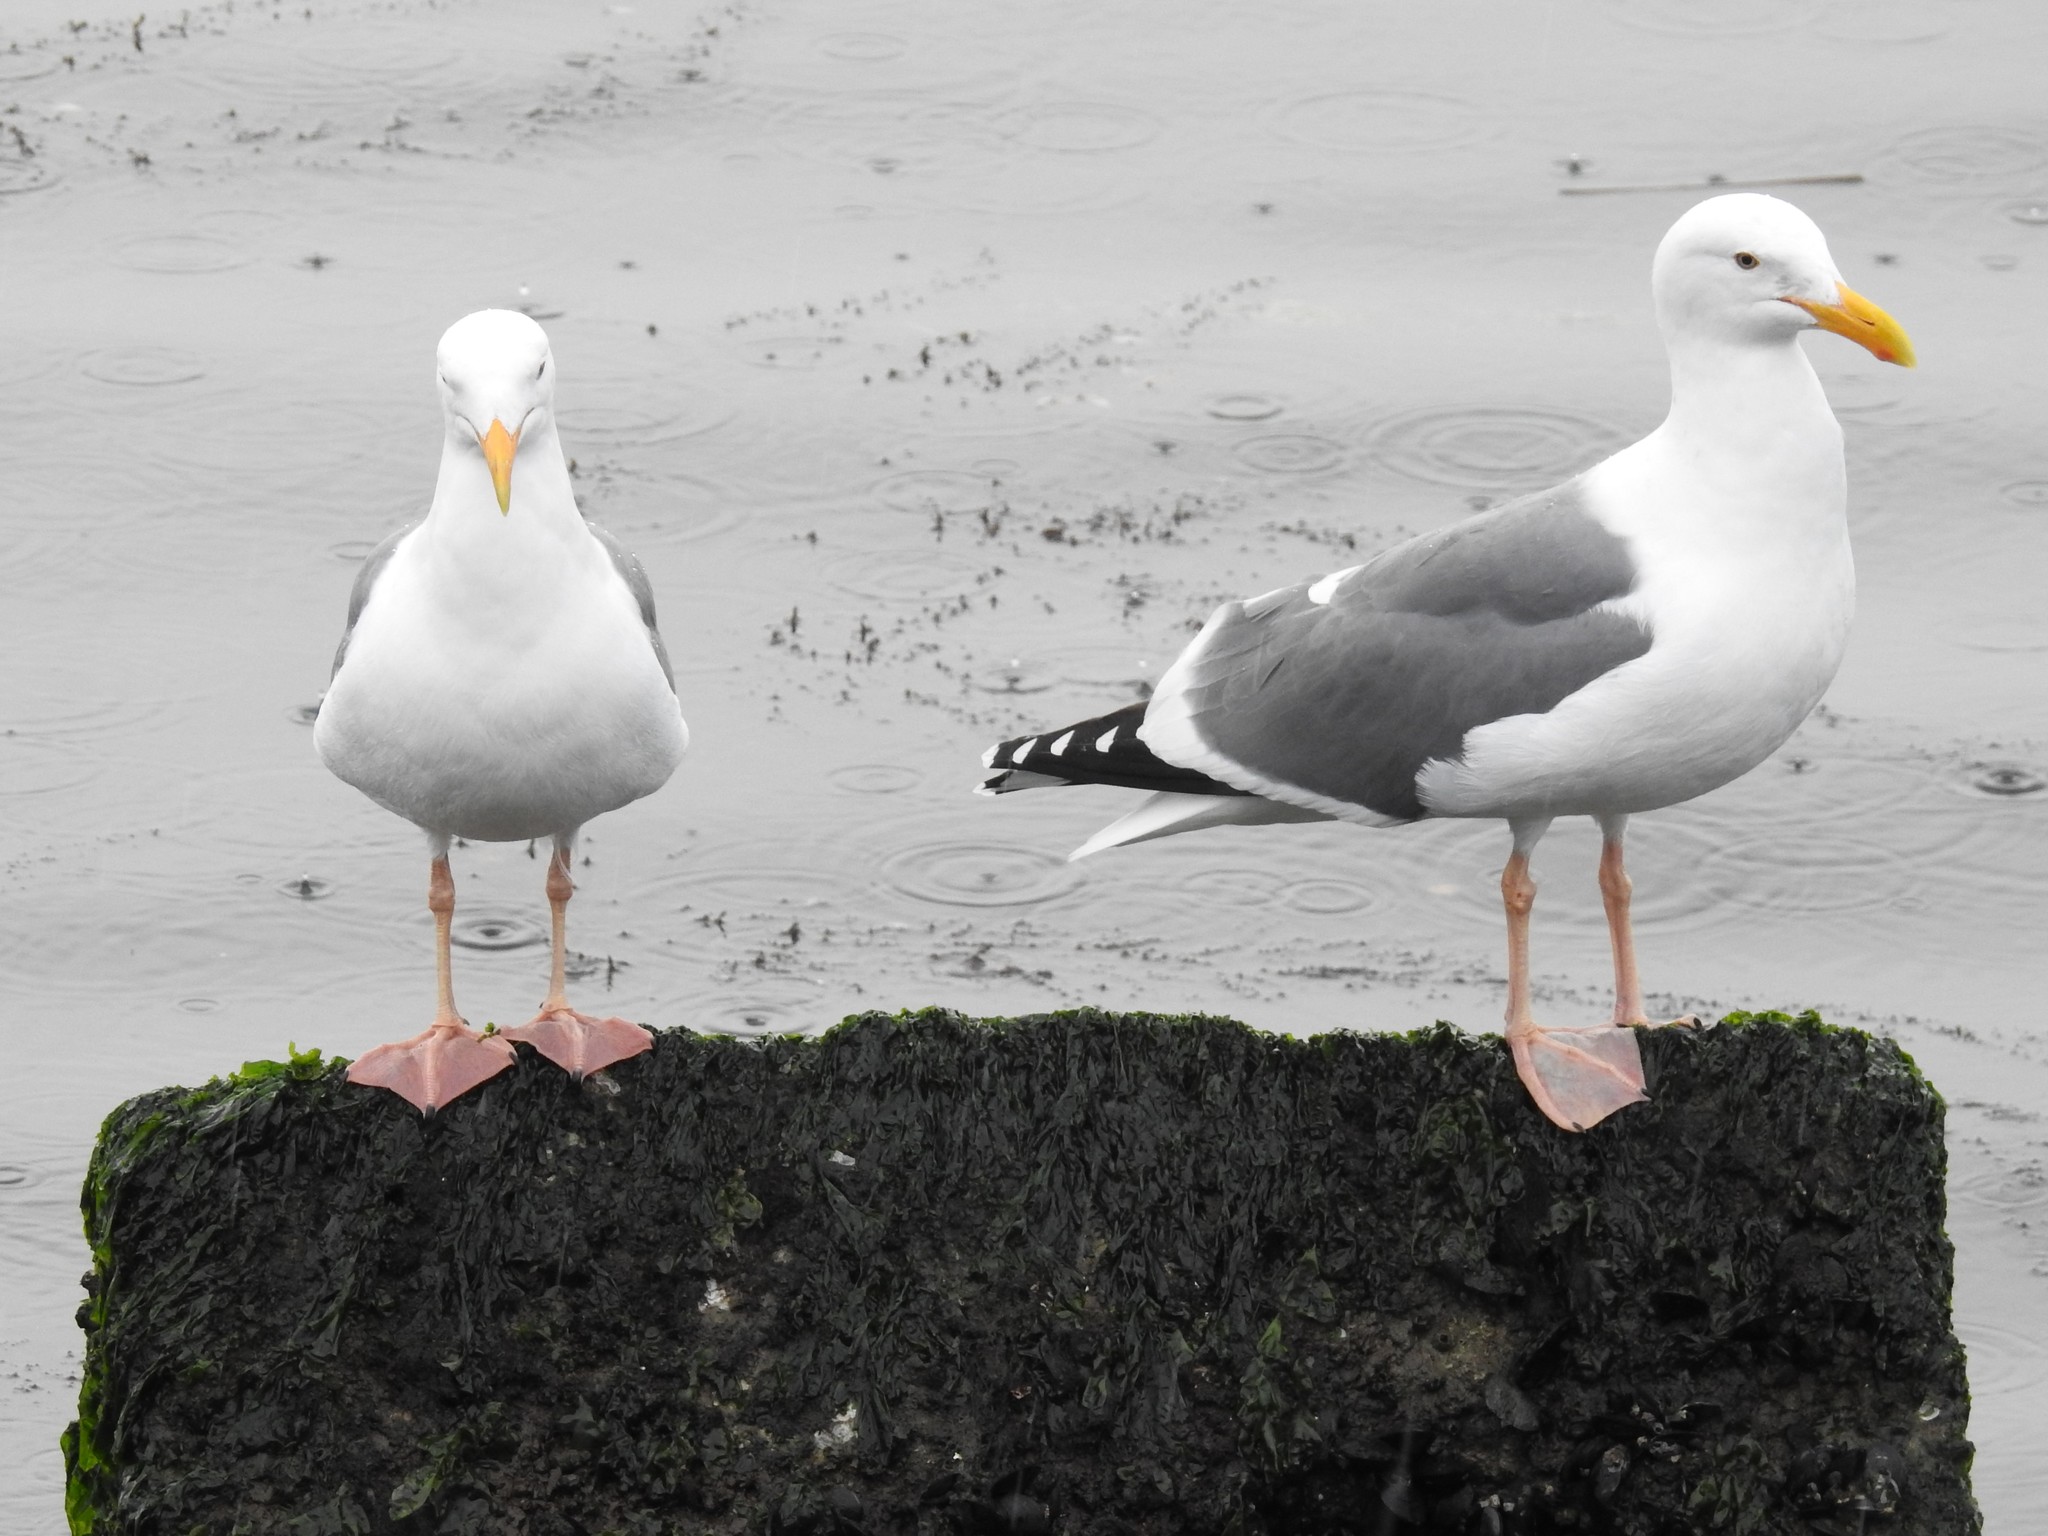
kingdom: Animalia
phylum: Chordata
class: Aves
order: Charadriiformes
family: Laridae
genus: Larus
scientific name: Larus occidentalis
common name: Western gull
